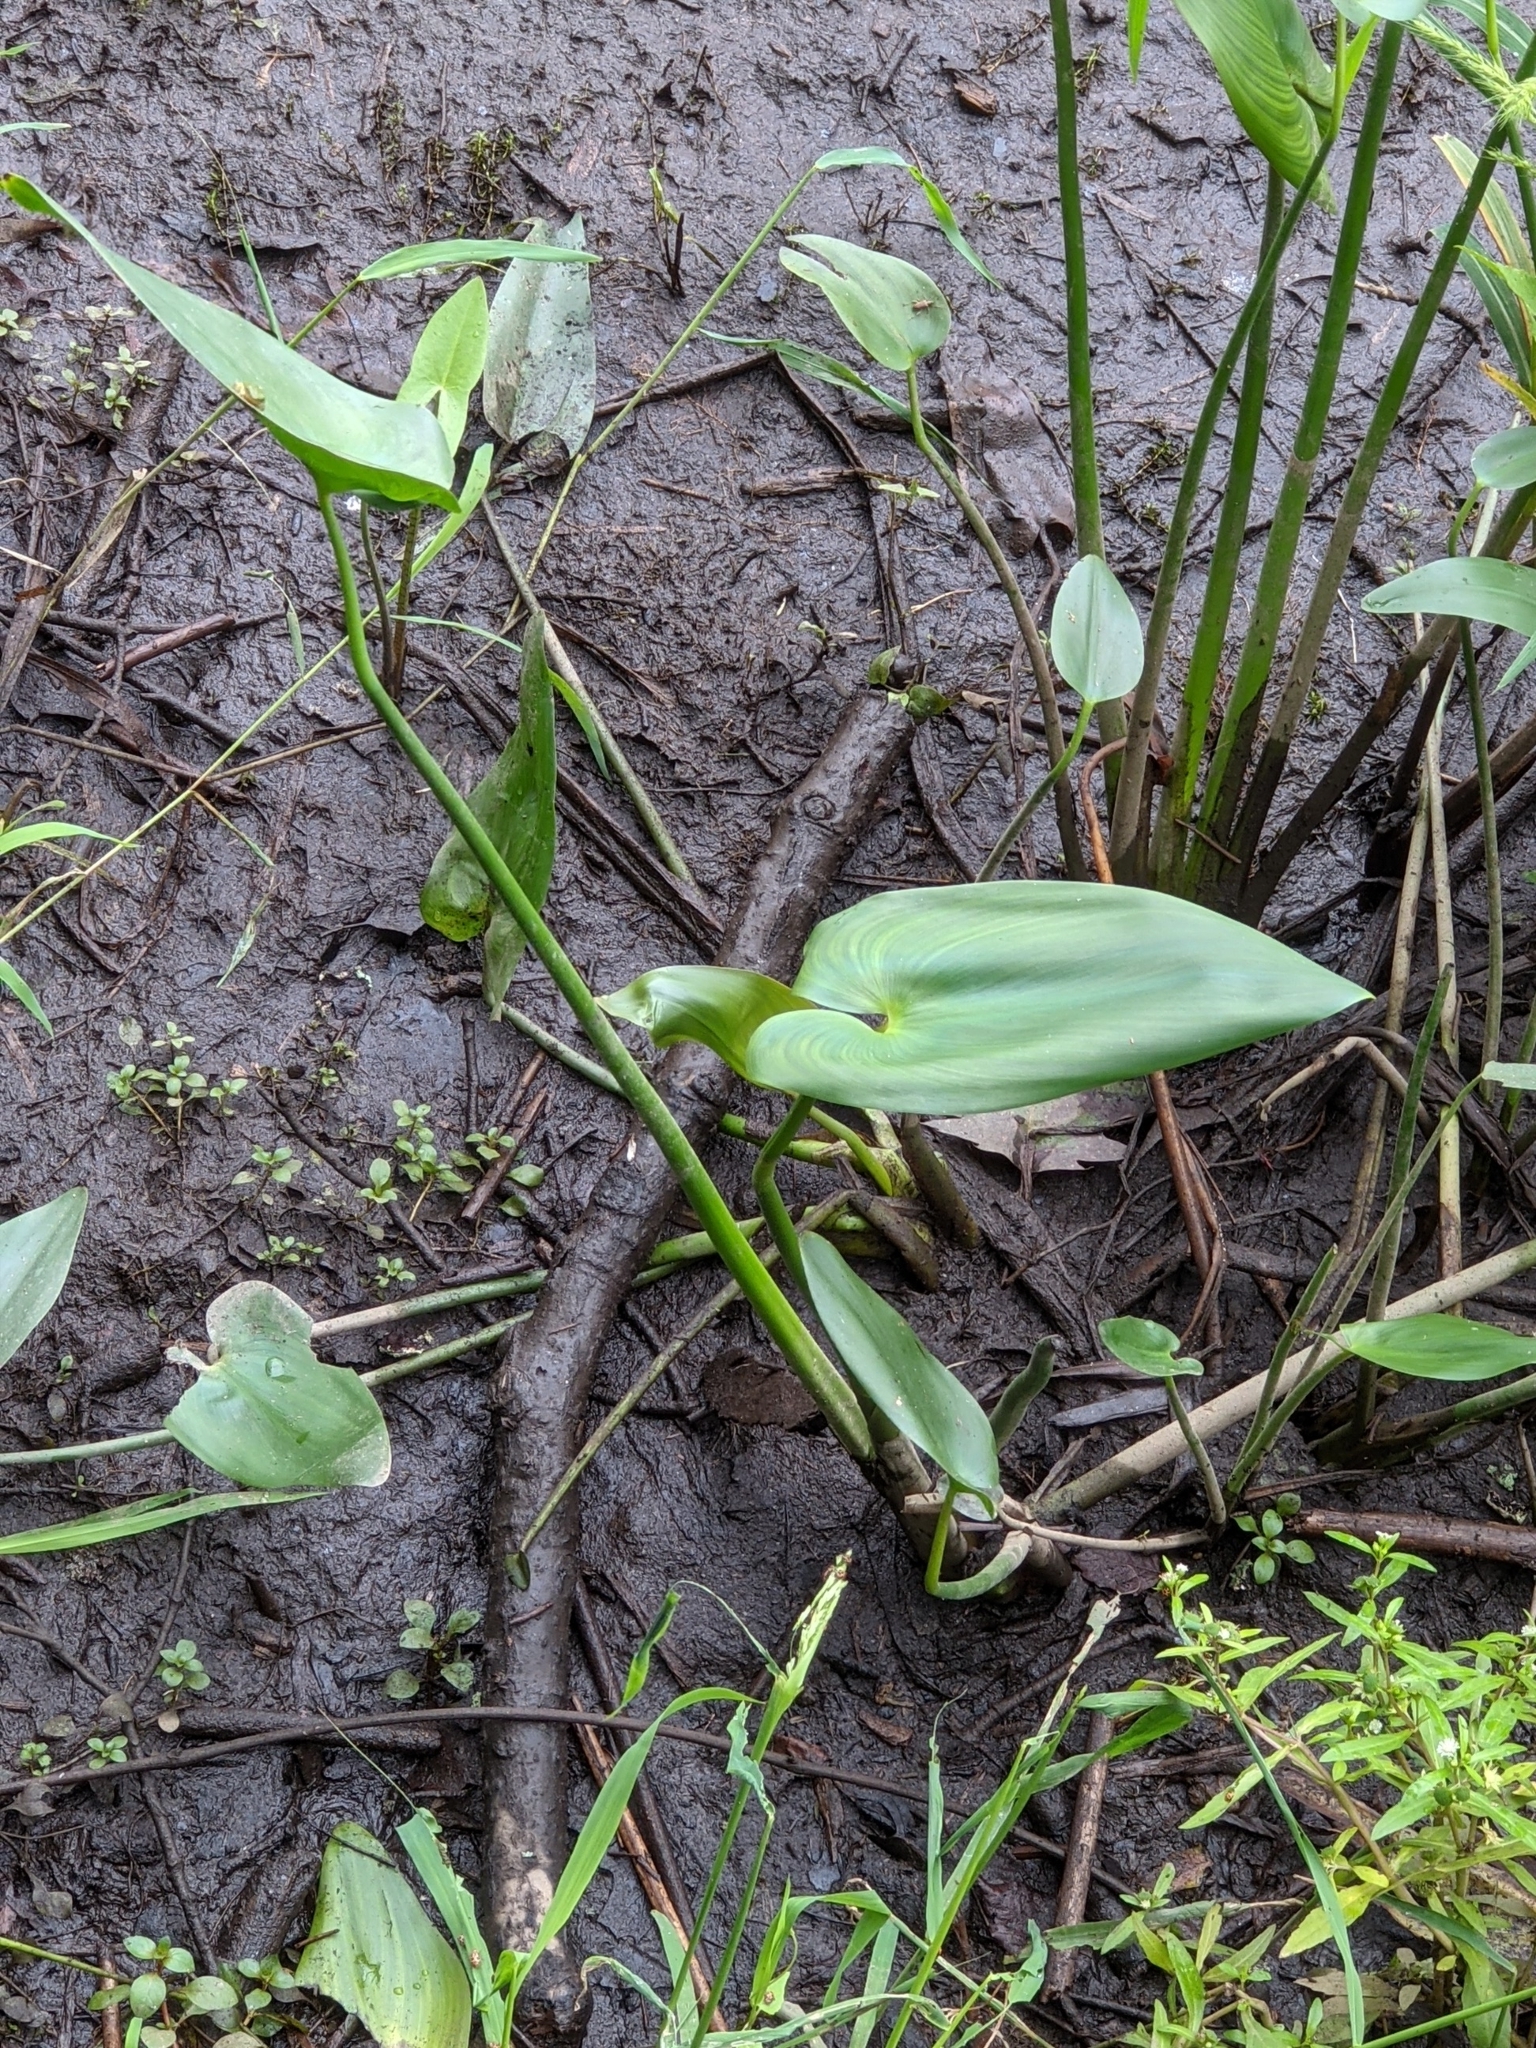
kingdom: Plantae
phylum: Tracheophyta
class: Liliopsida
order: Commelinales
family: Pontederiaceae
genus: Pontederia
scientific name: Pontederia cordata
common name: Pickerelweed
